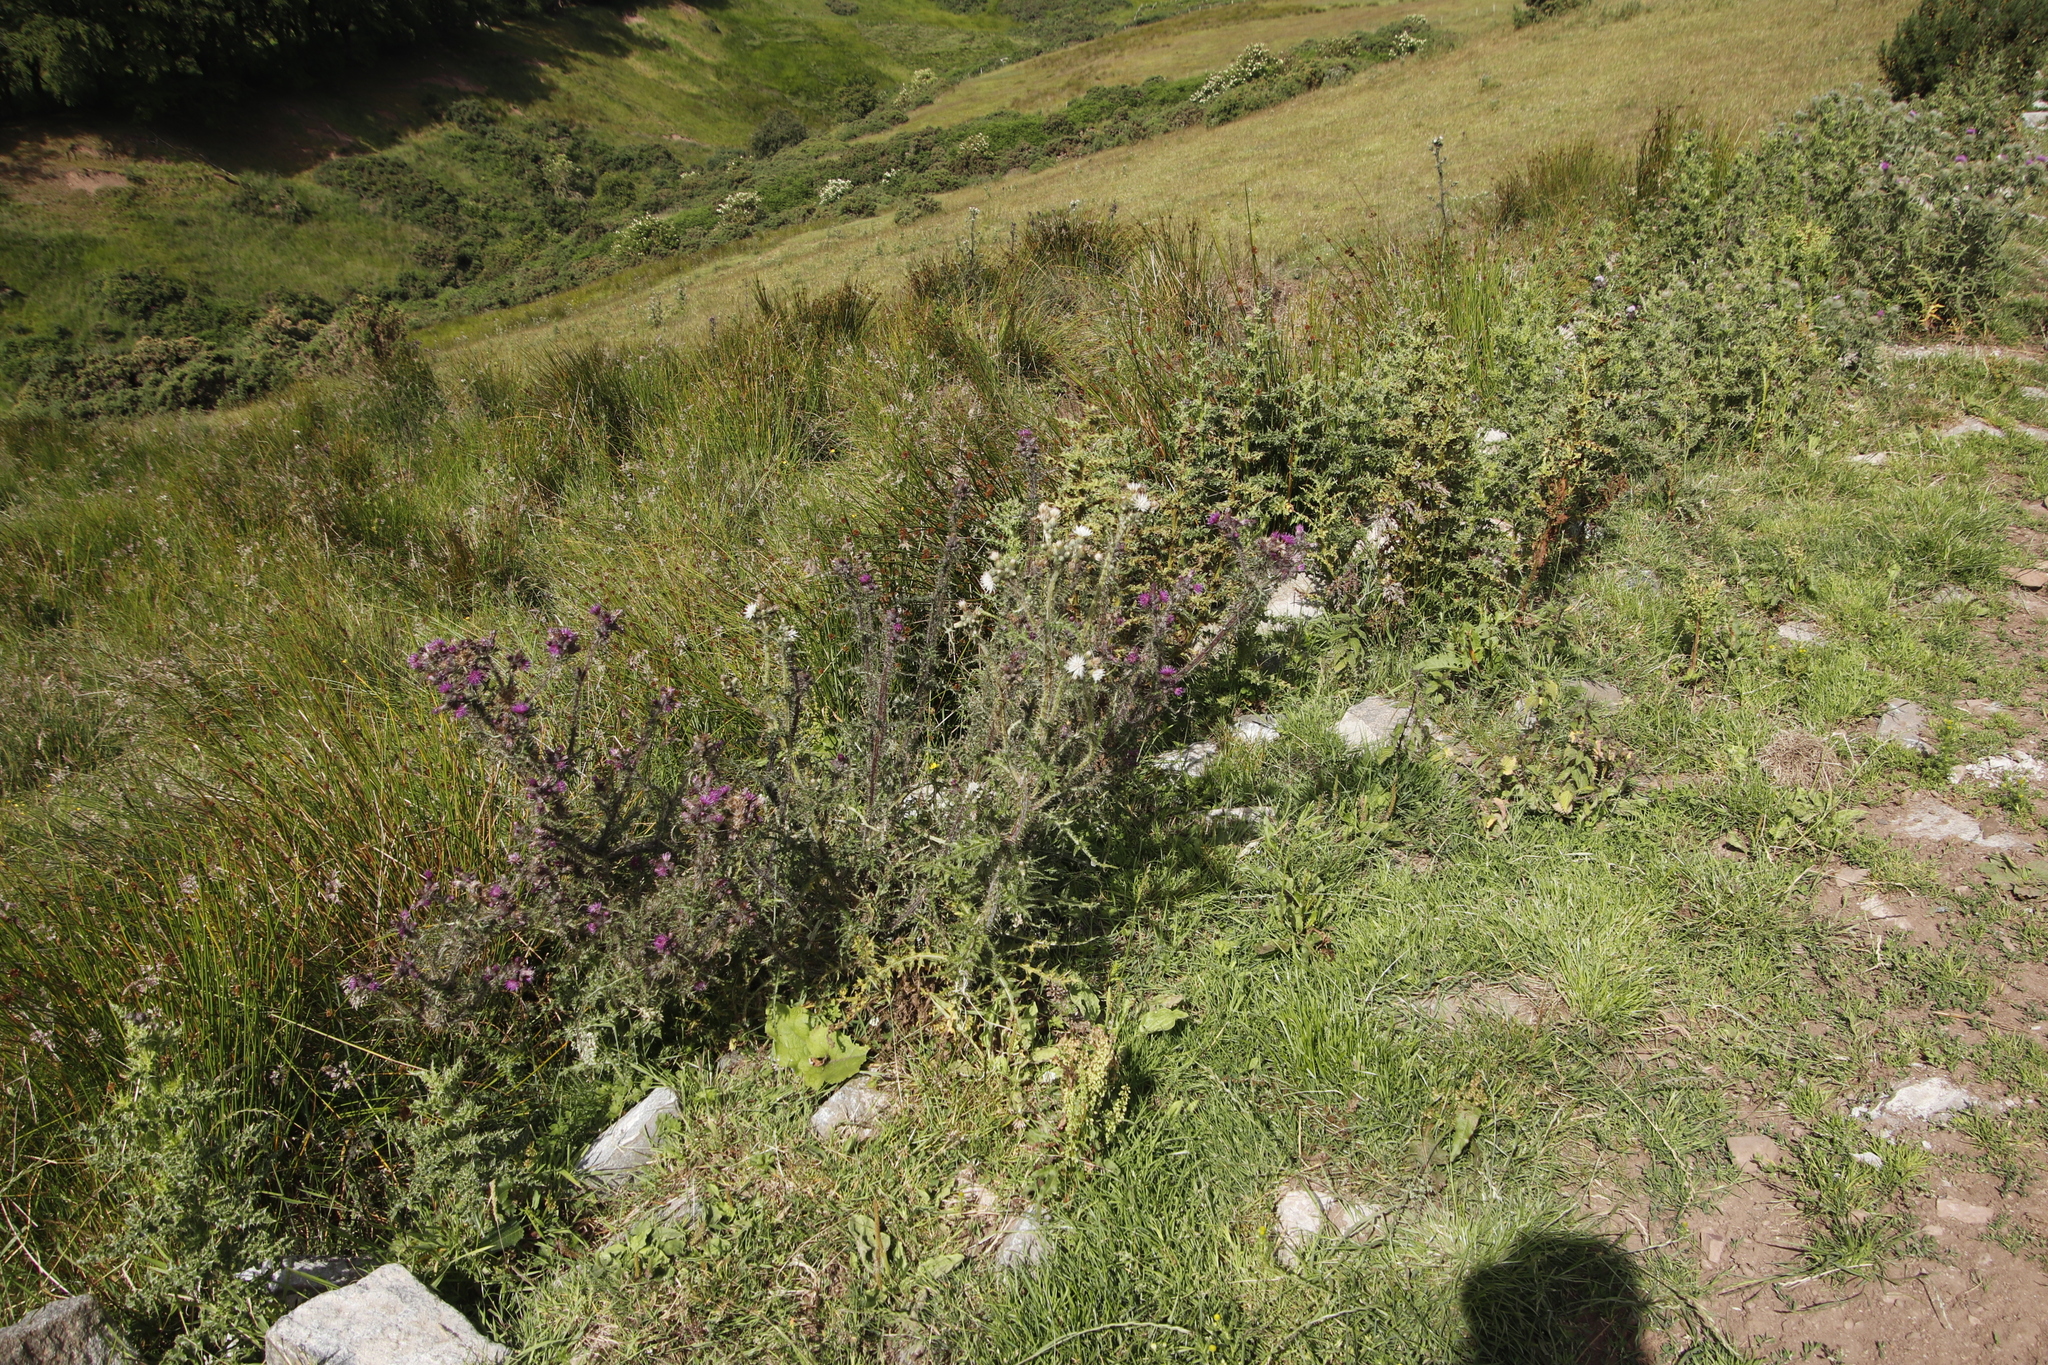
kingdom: Plantae
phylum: Tracheophyta
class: Magnoliopsida
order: Asterales
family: Asteraceae
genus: Cirsium
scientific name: Cirsium palustre
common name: Marsh thistle
